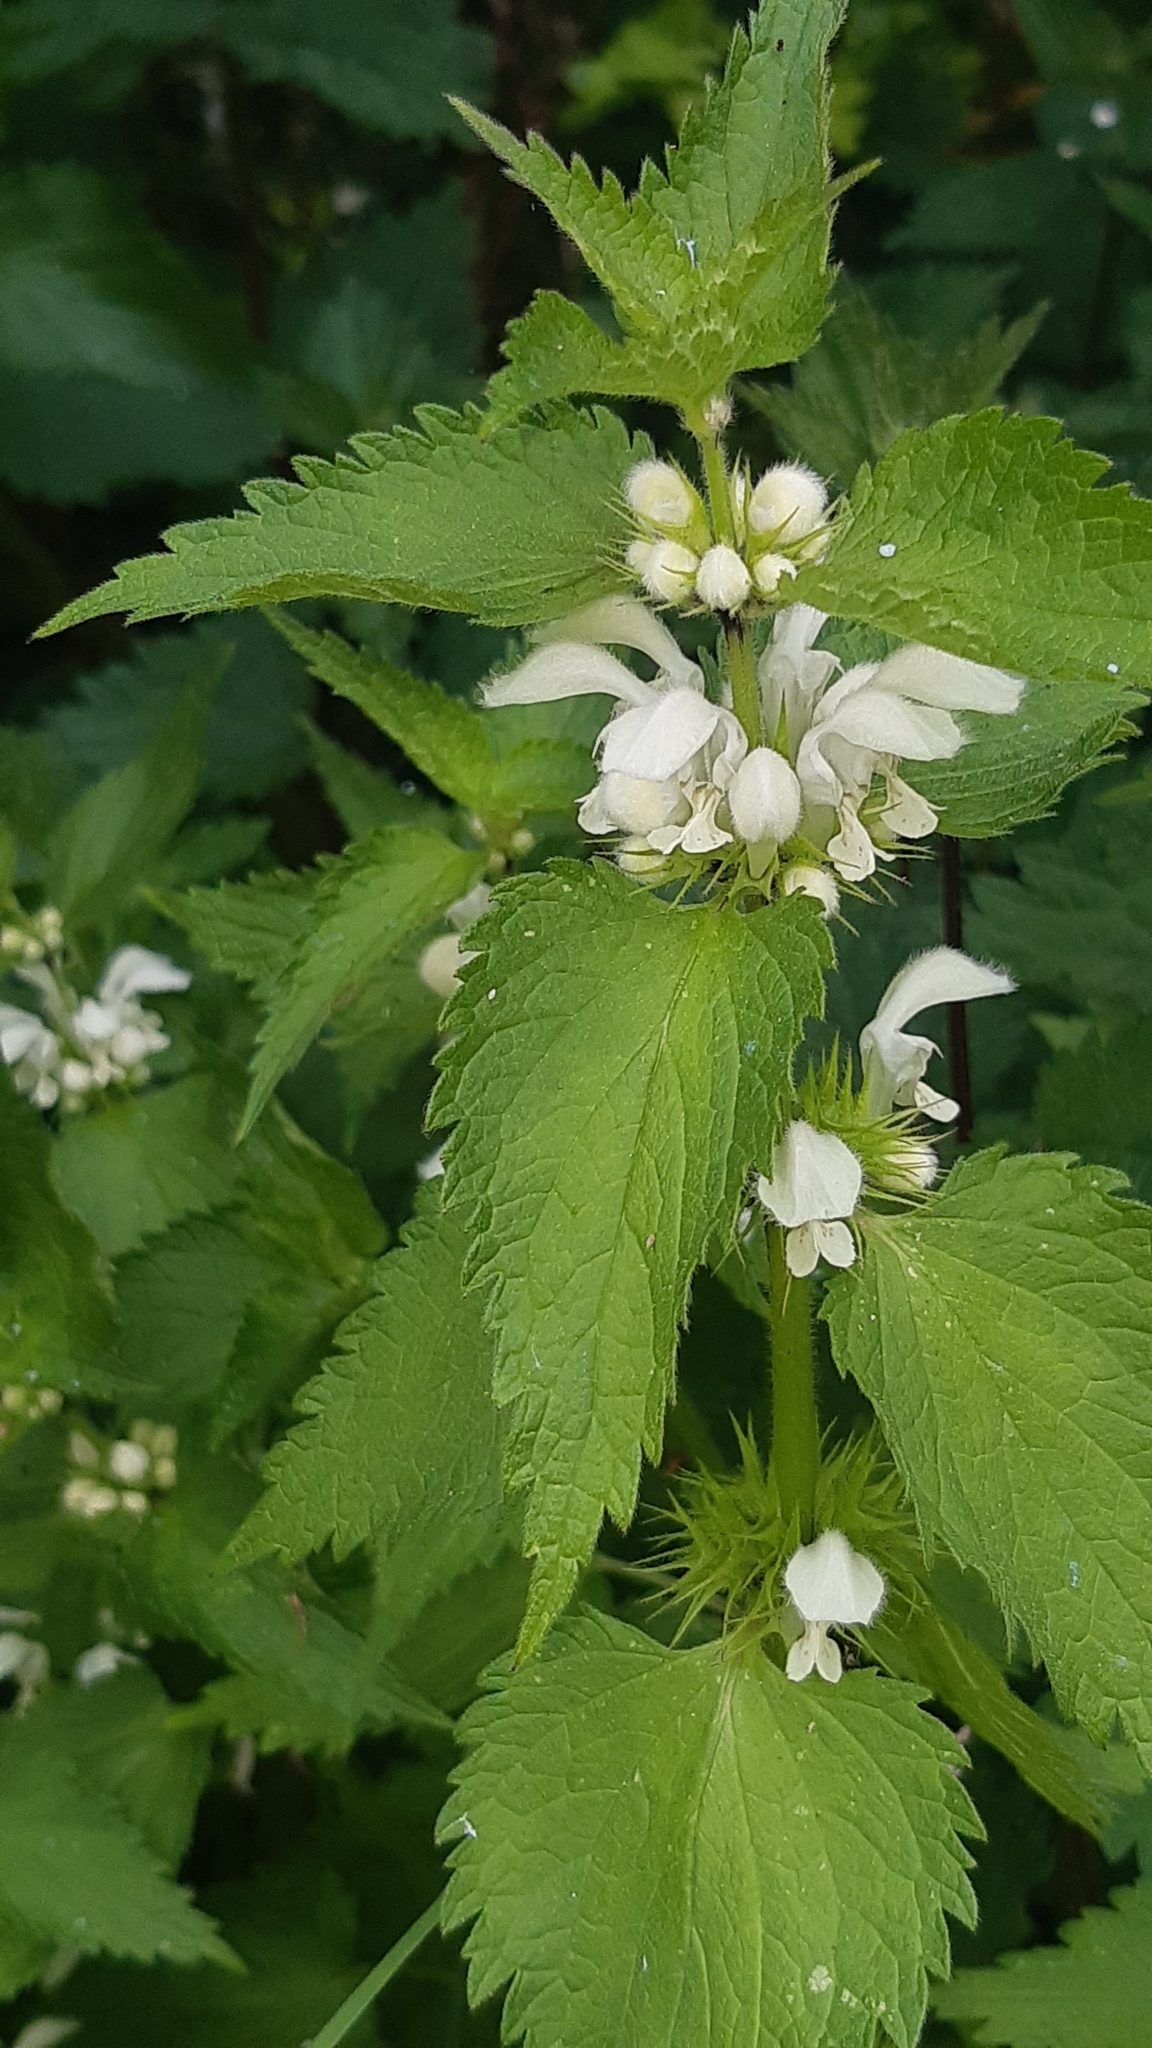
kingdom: Plantae
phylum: Tracheophyta
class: Magnoliopsida
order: Lamiales
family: Lamiaceae
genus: Lamium
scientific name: Lamium album
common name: White dead-nettle
